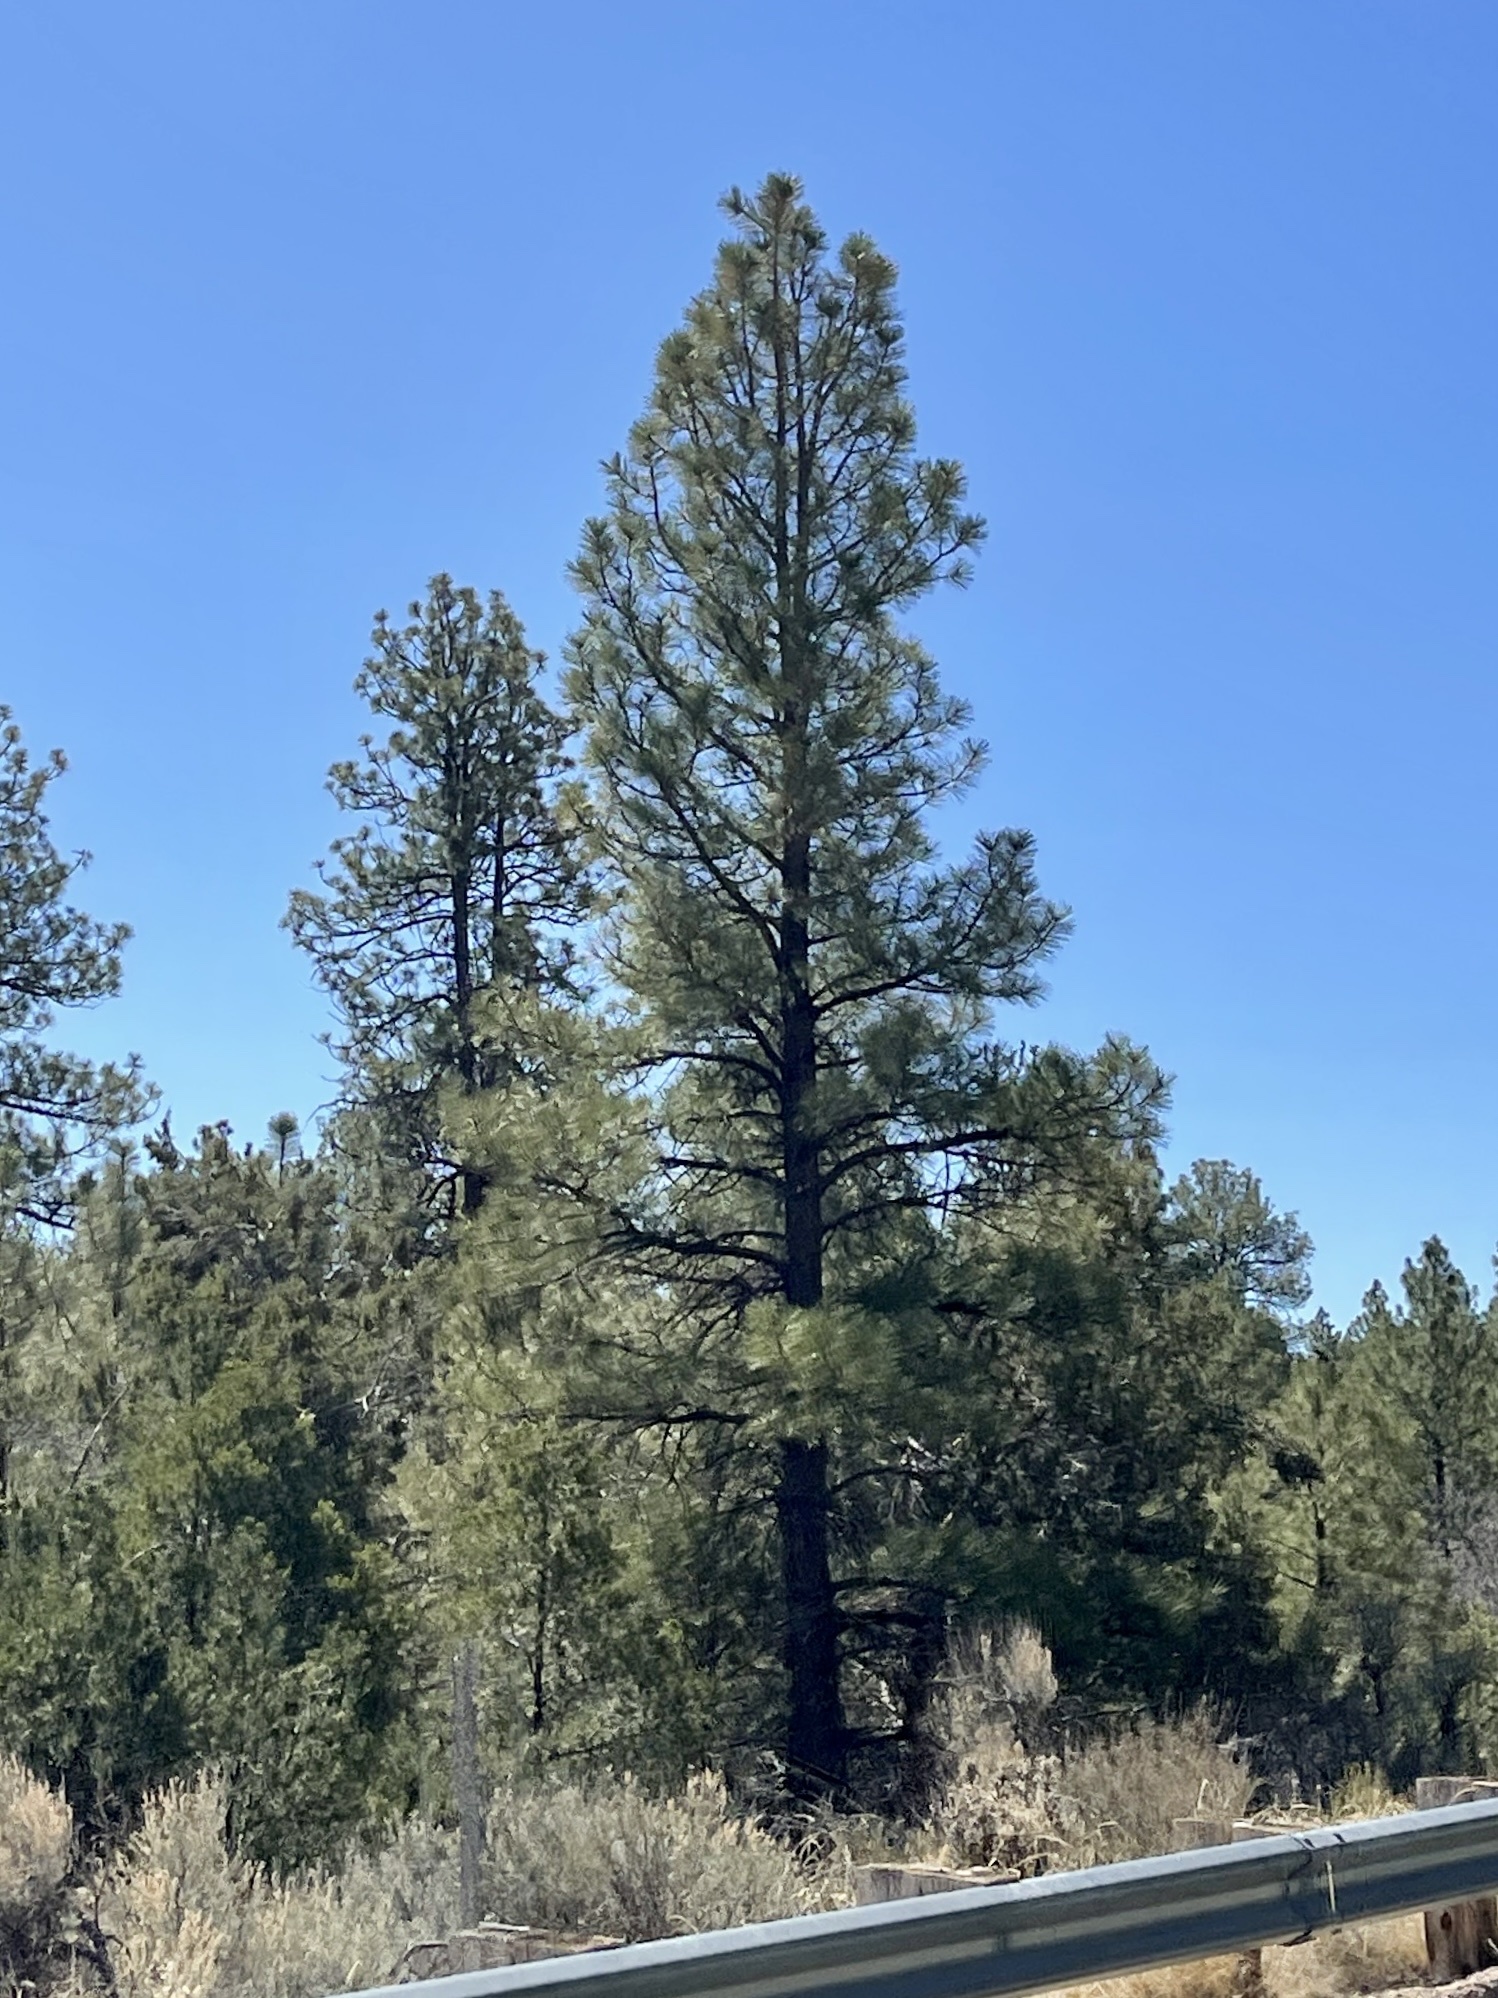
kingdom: Plantae
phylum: Tracheophyta
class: Pinopsida
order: Pinales
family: Pinaceae
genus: Pinus
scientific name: Pinus ponderosa
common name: Western yellow-pine
